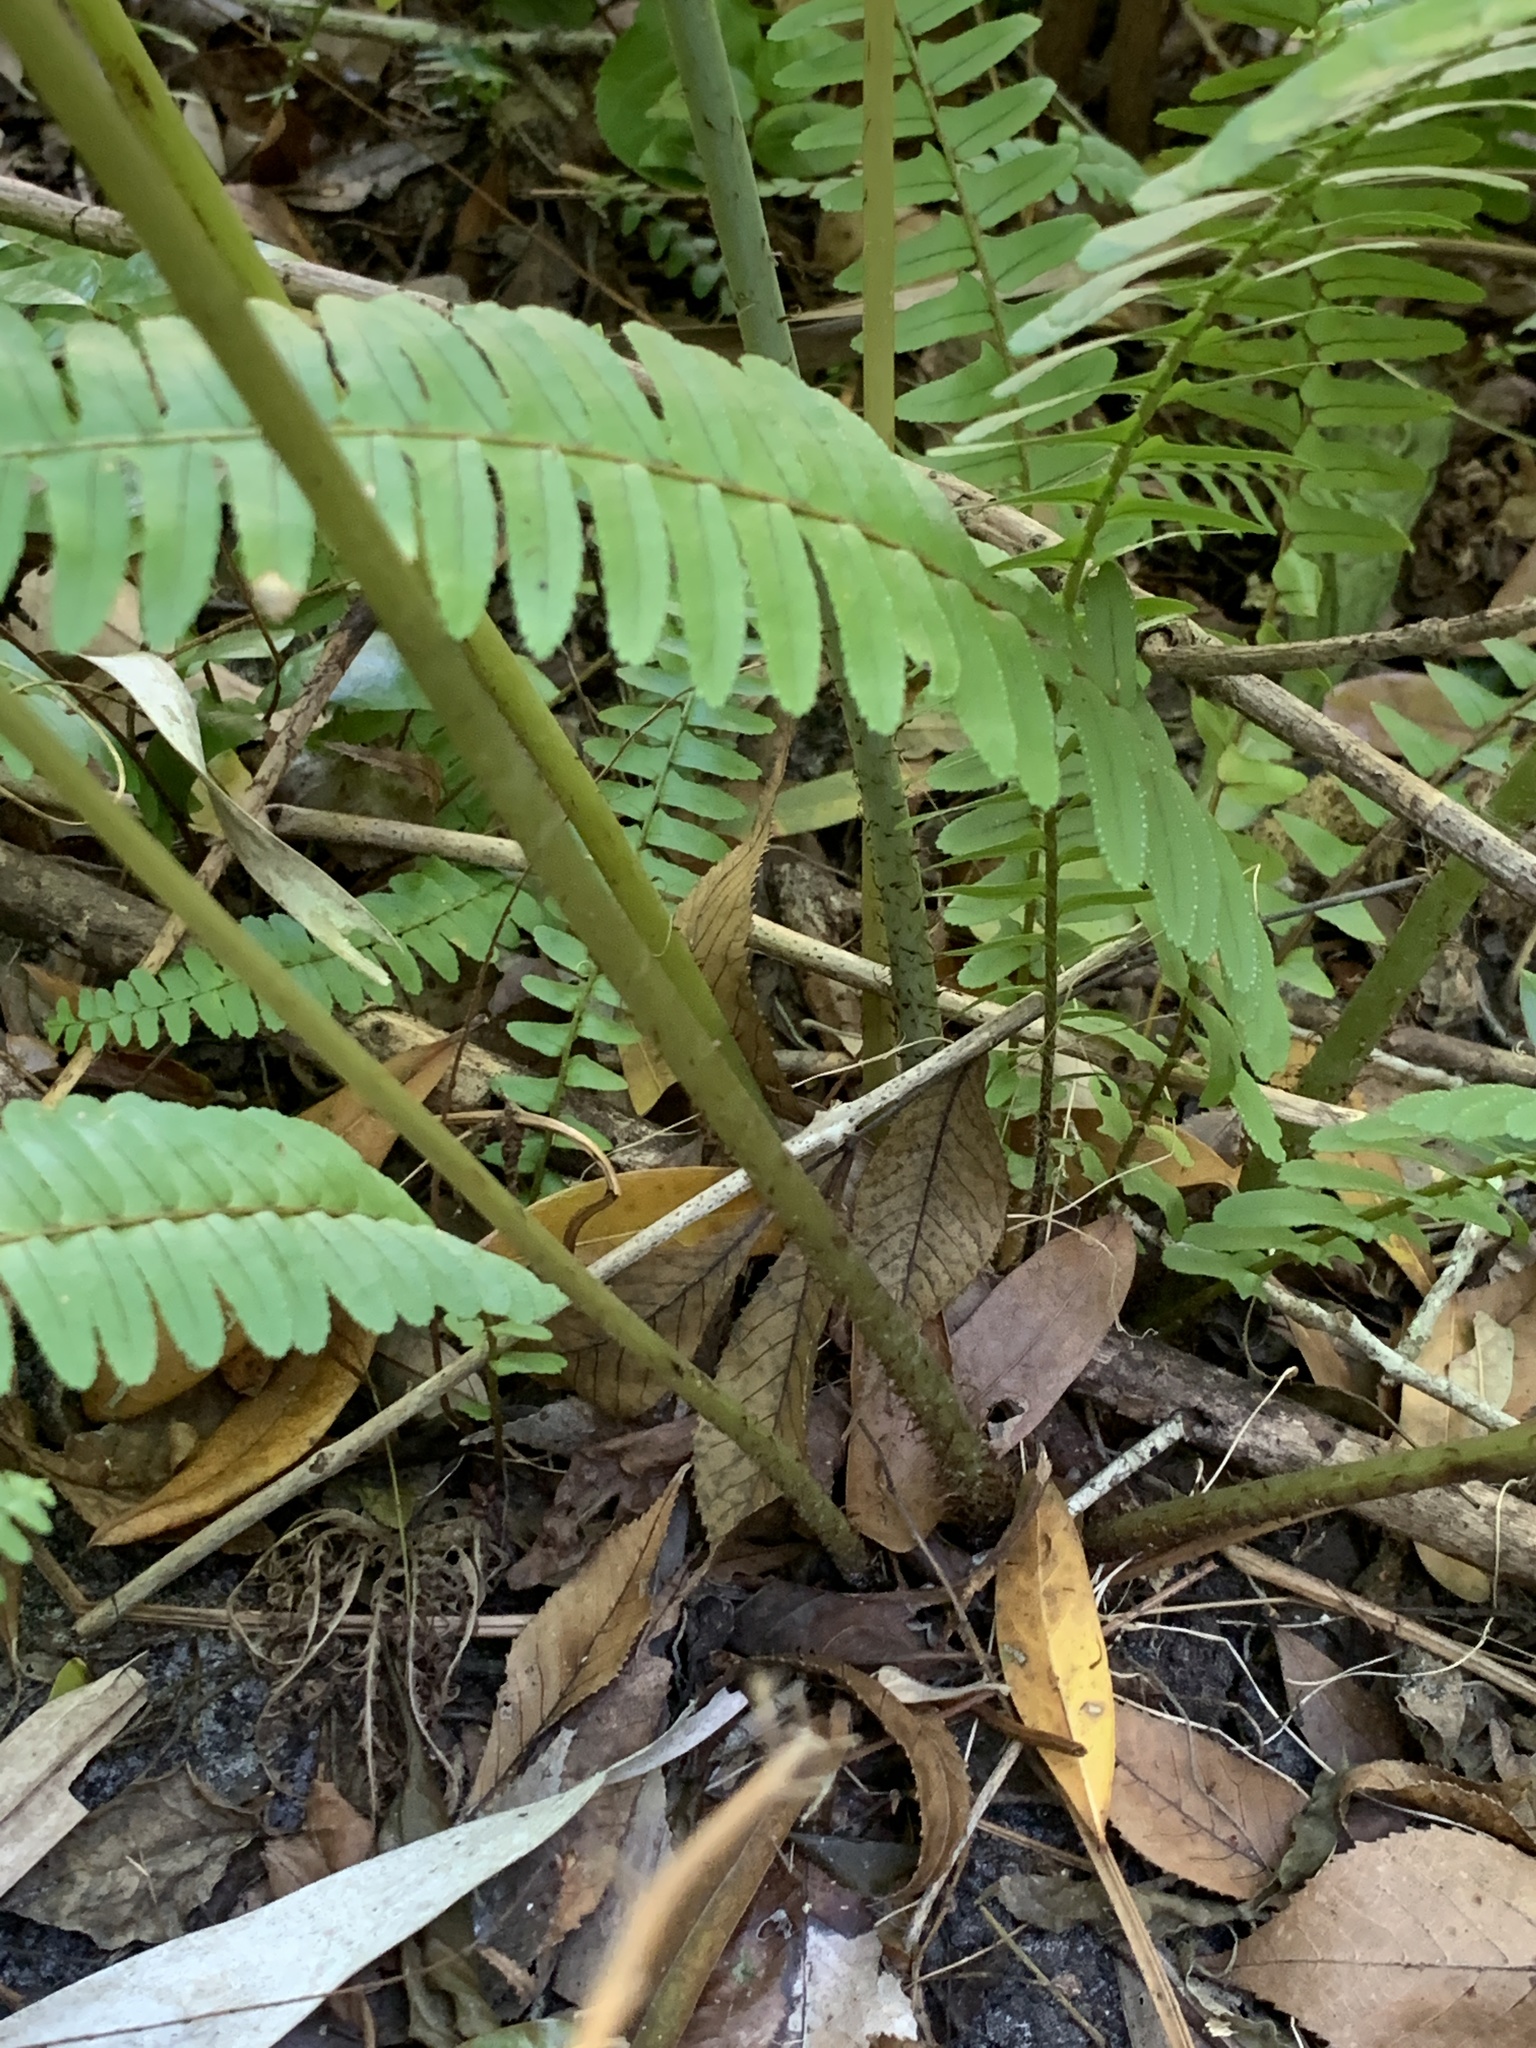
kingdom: Plantae
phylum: Tracheophyta
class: Polypodiopsida
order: Polypodiales
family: Thelypteridaceae
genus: Macrothelypteris
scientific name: Macrothelypteris torresiana
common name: Swordfern
